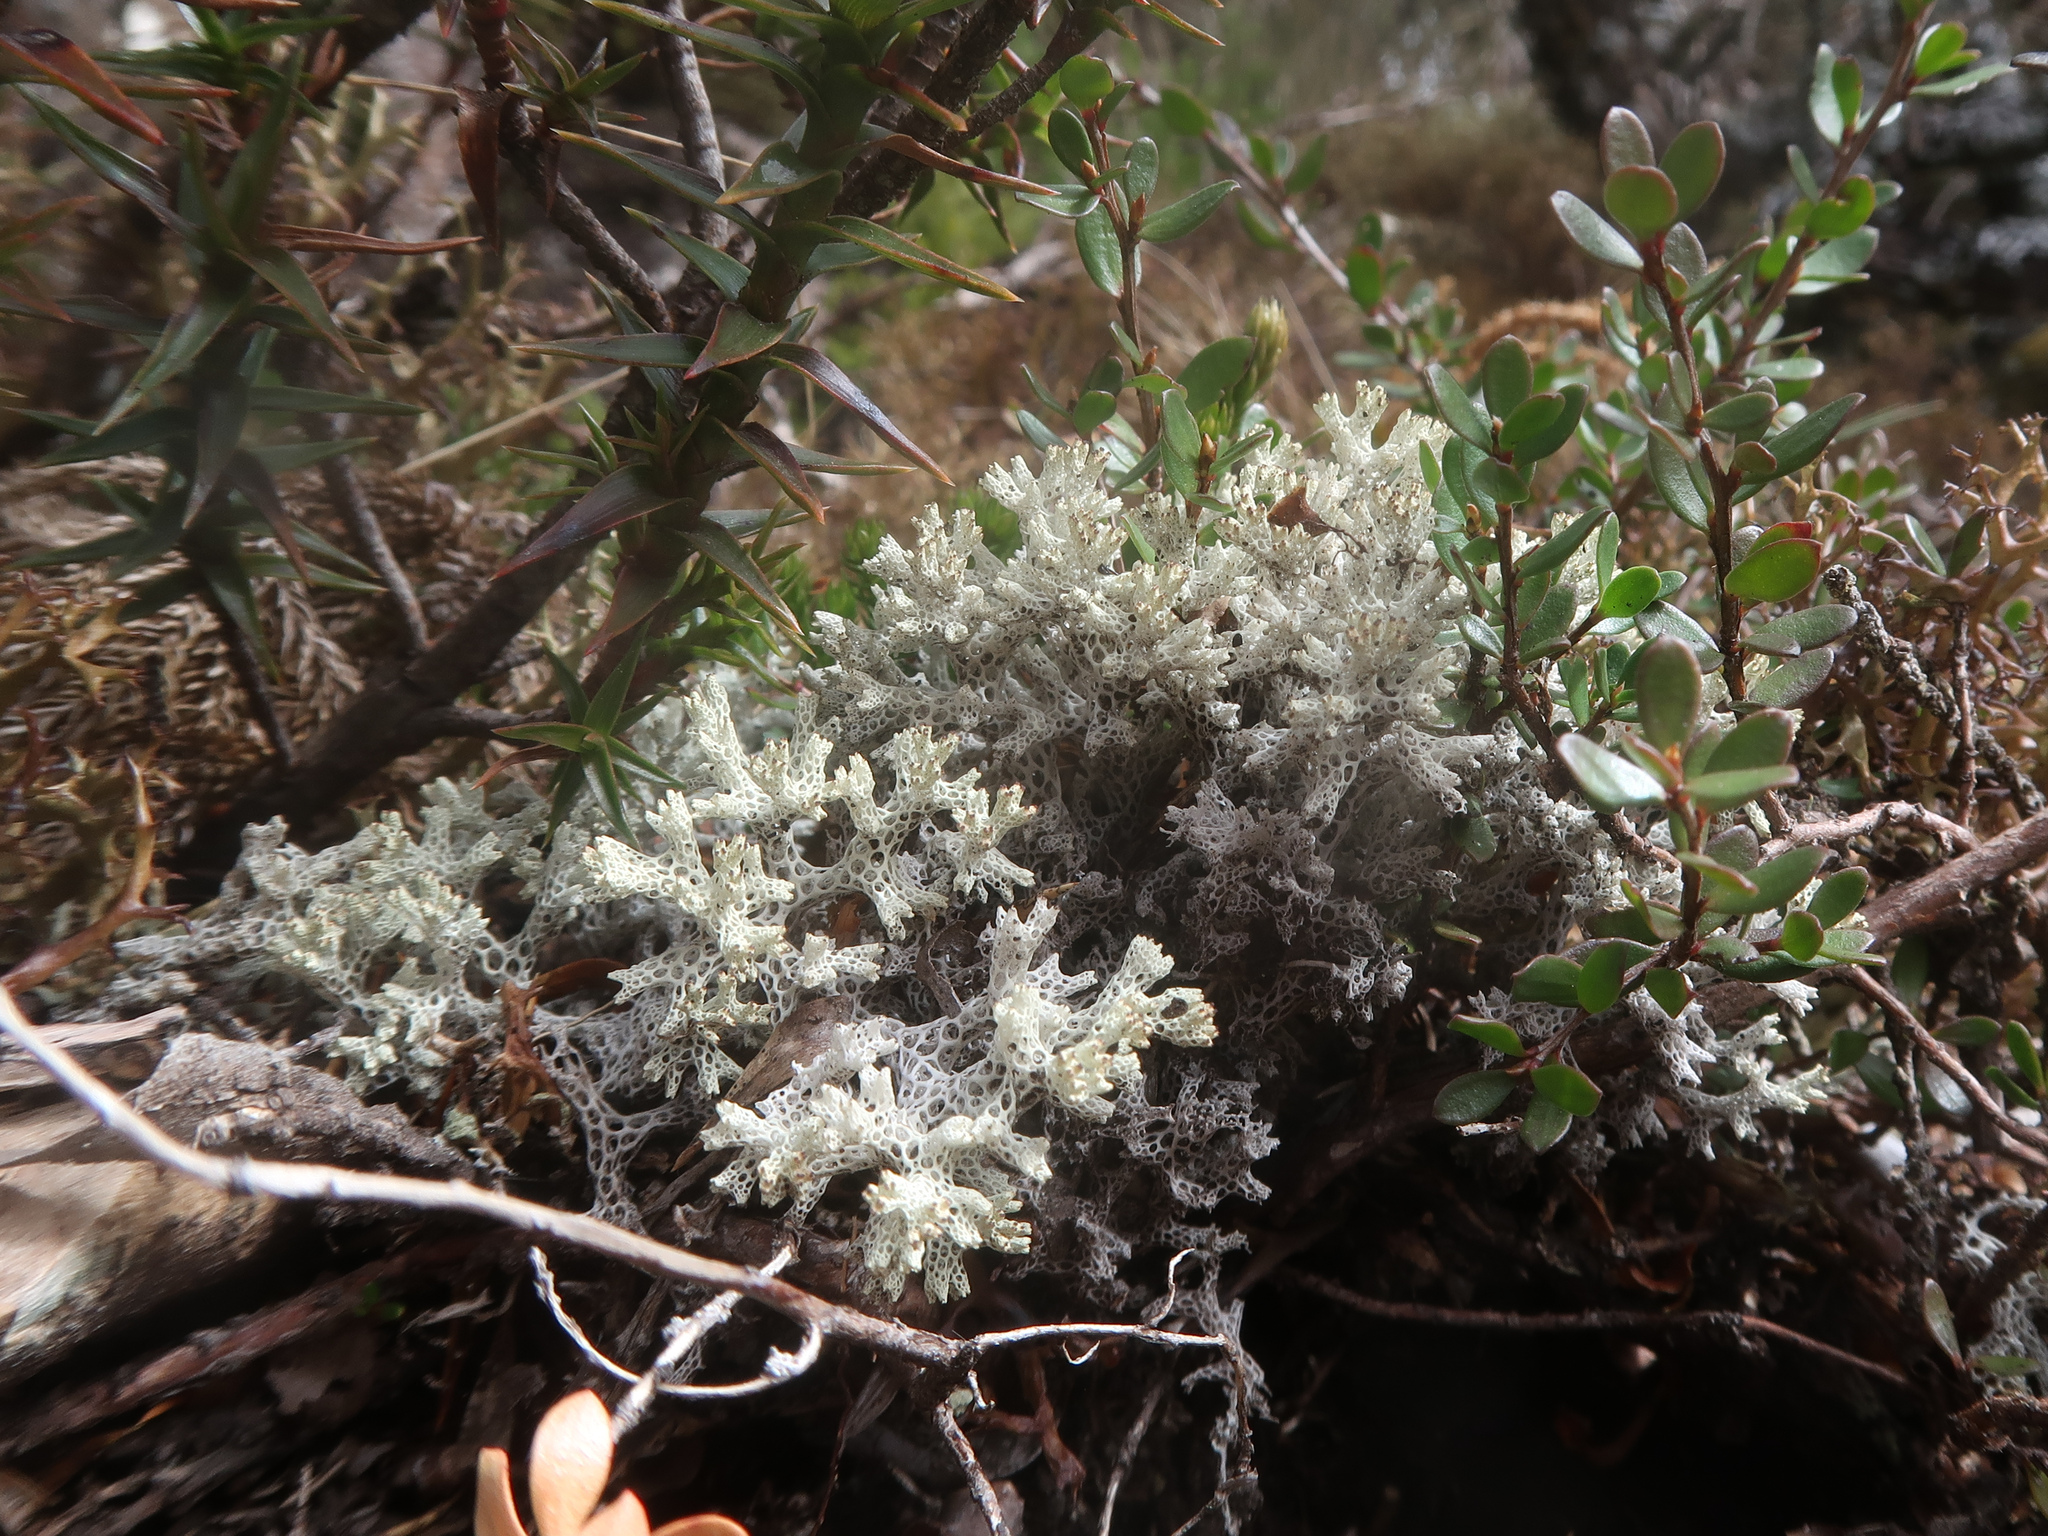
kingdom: Fungi
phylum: Ascomycota
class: Lecanoromycetes
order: Lecanorales
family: Cladoniaceae
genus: Pulchrocladia
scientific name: Pulchrocladia retipora
